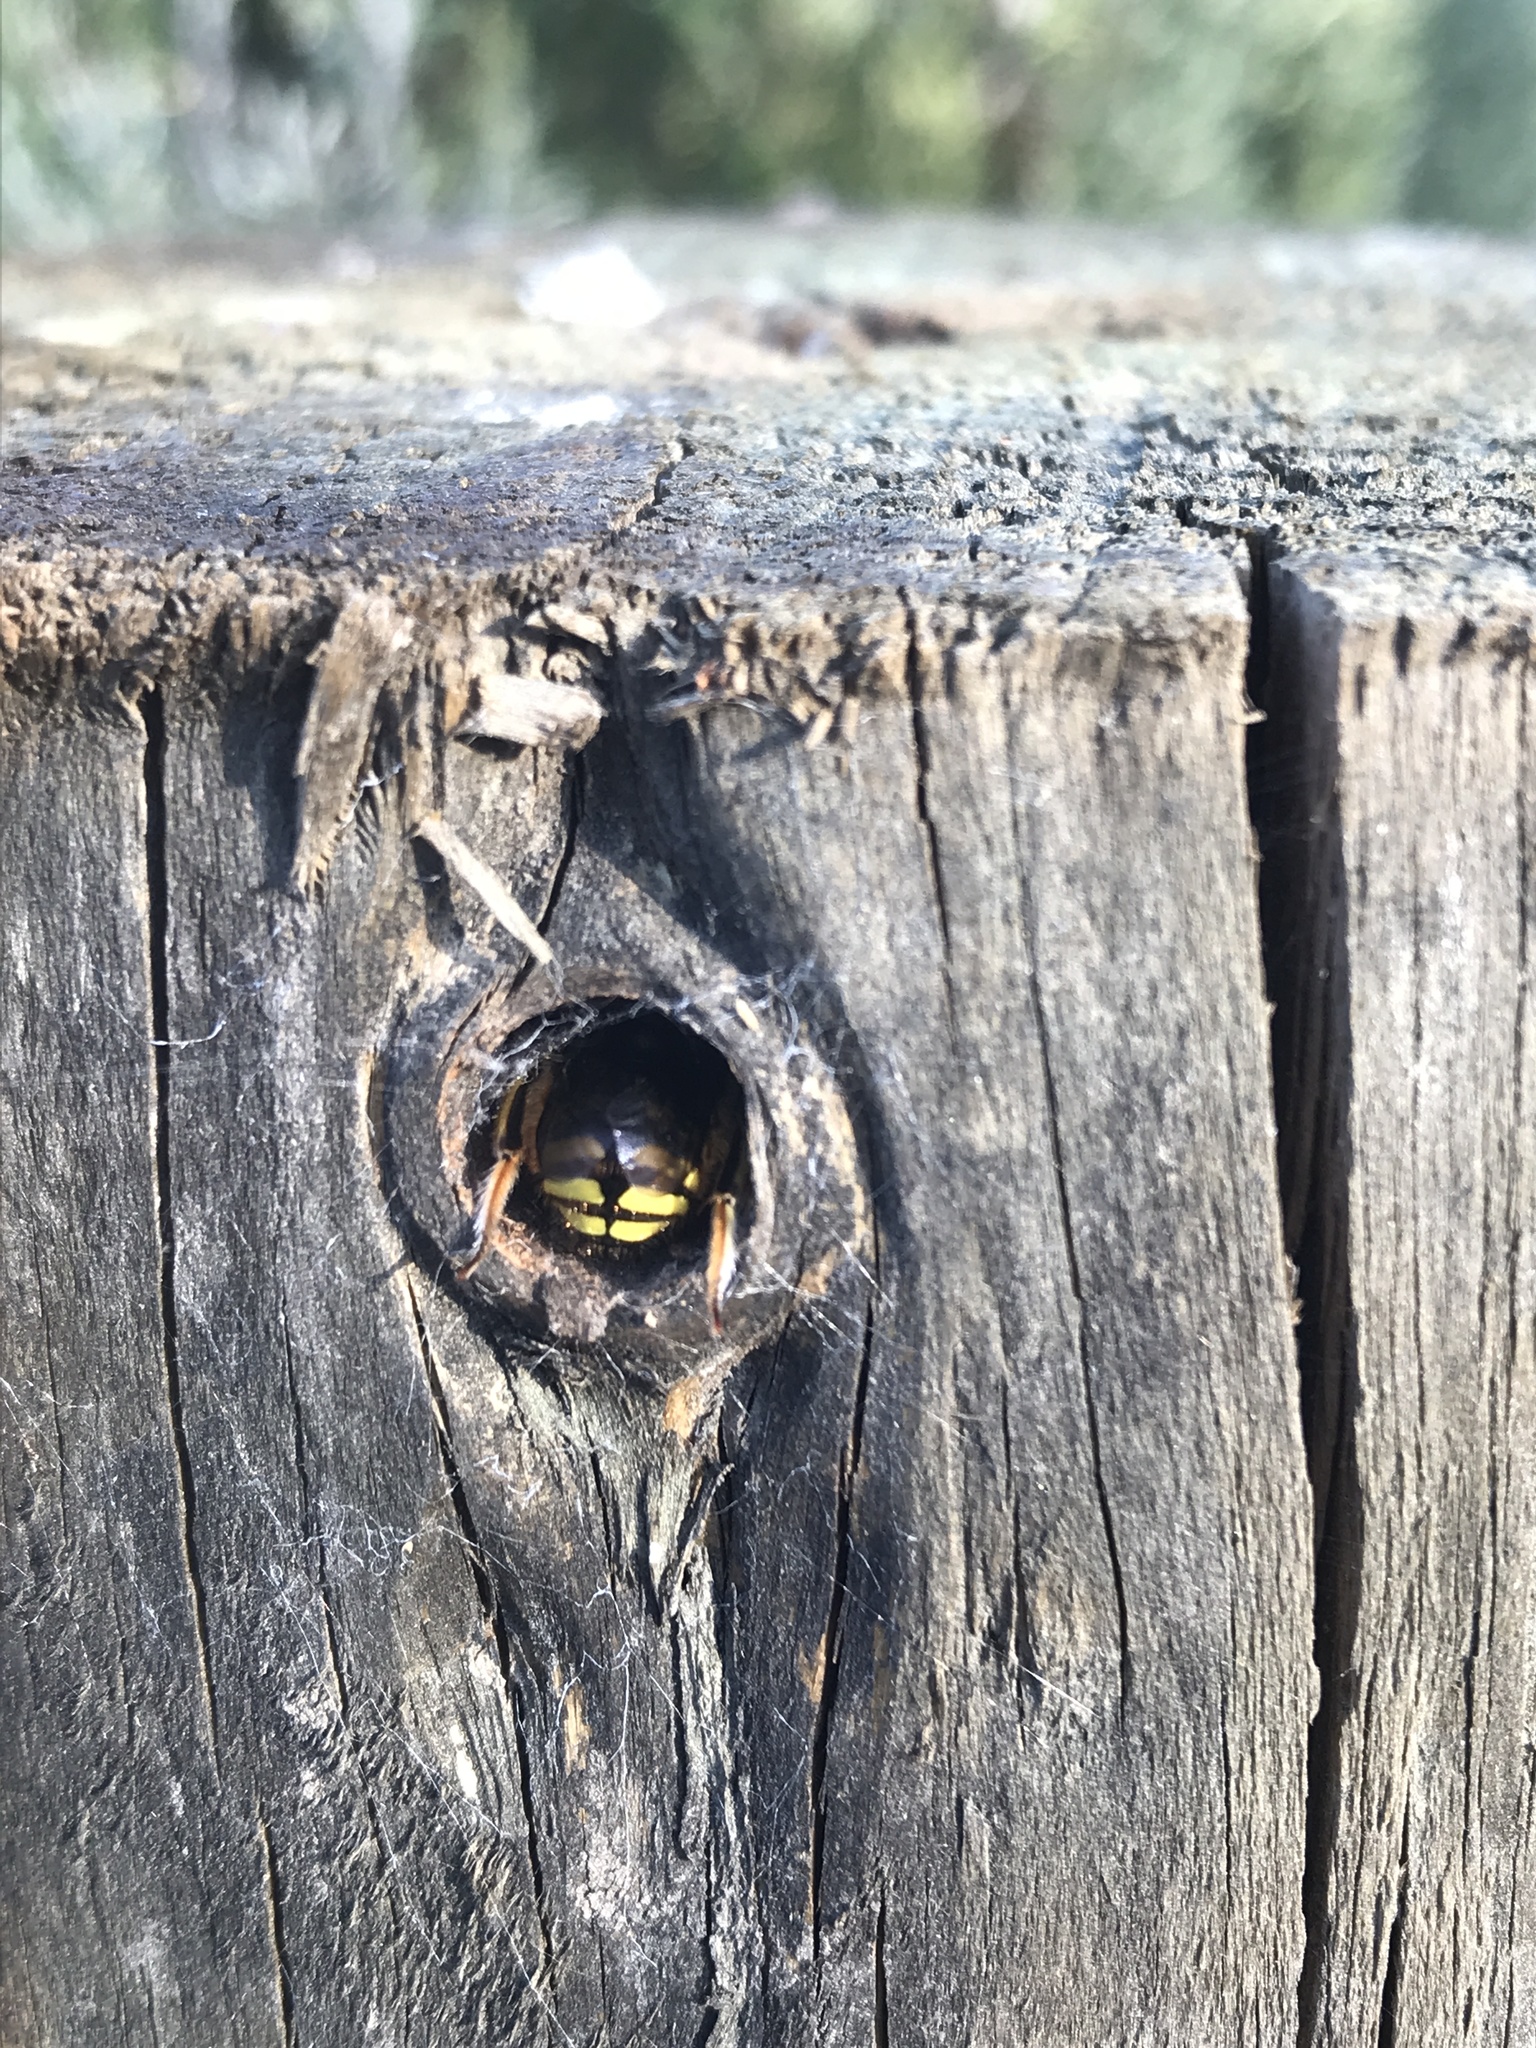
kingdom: Animalia
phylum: Arthropoda
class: Insecta
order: Hymenoptera
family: Megachilidae
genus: Anthidium
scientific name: Anthidium manicatum
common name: Wool carder bee
